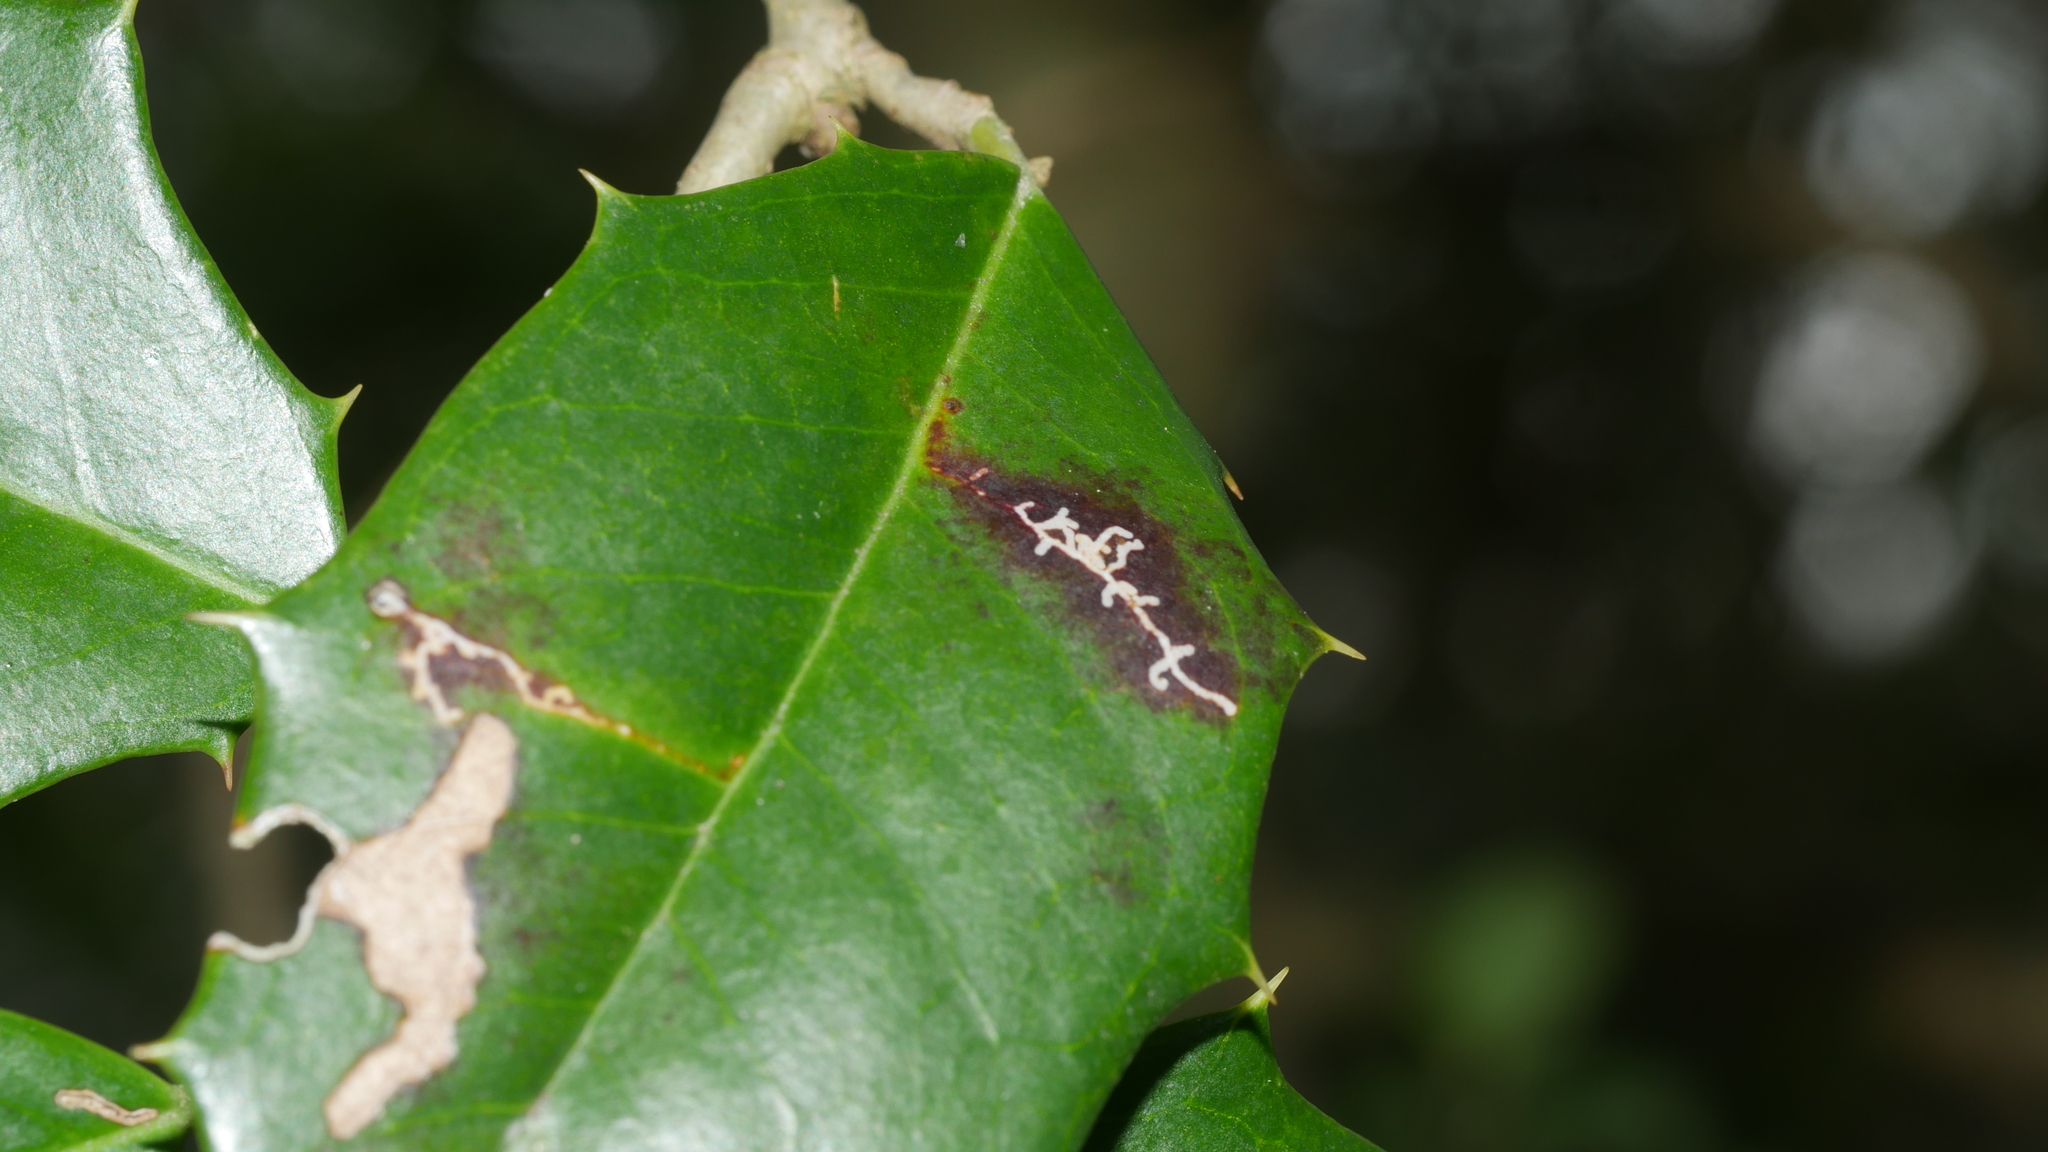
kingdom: Animalia
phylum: Arthropoda
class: Insecta
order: Lepidoptera
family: Tortricidae
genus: Rhopobota
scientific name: Rhopobota
